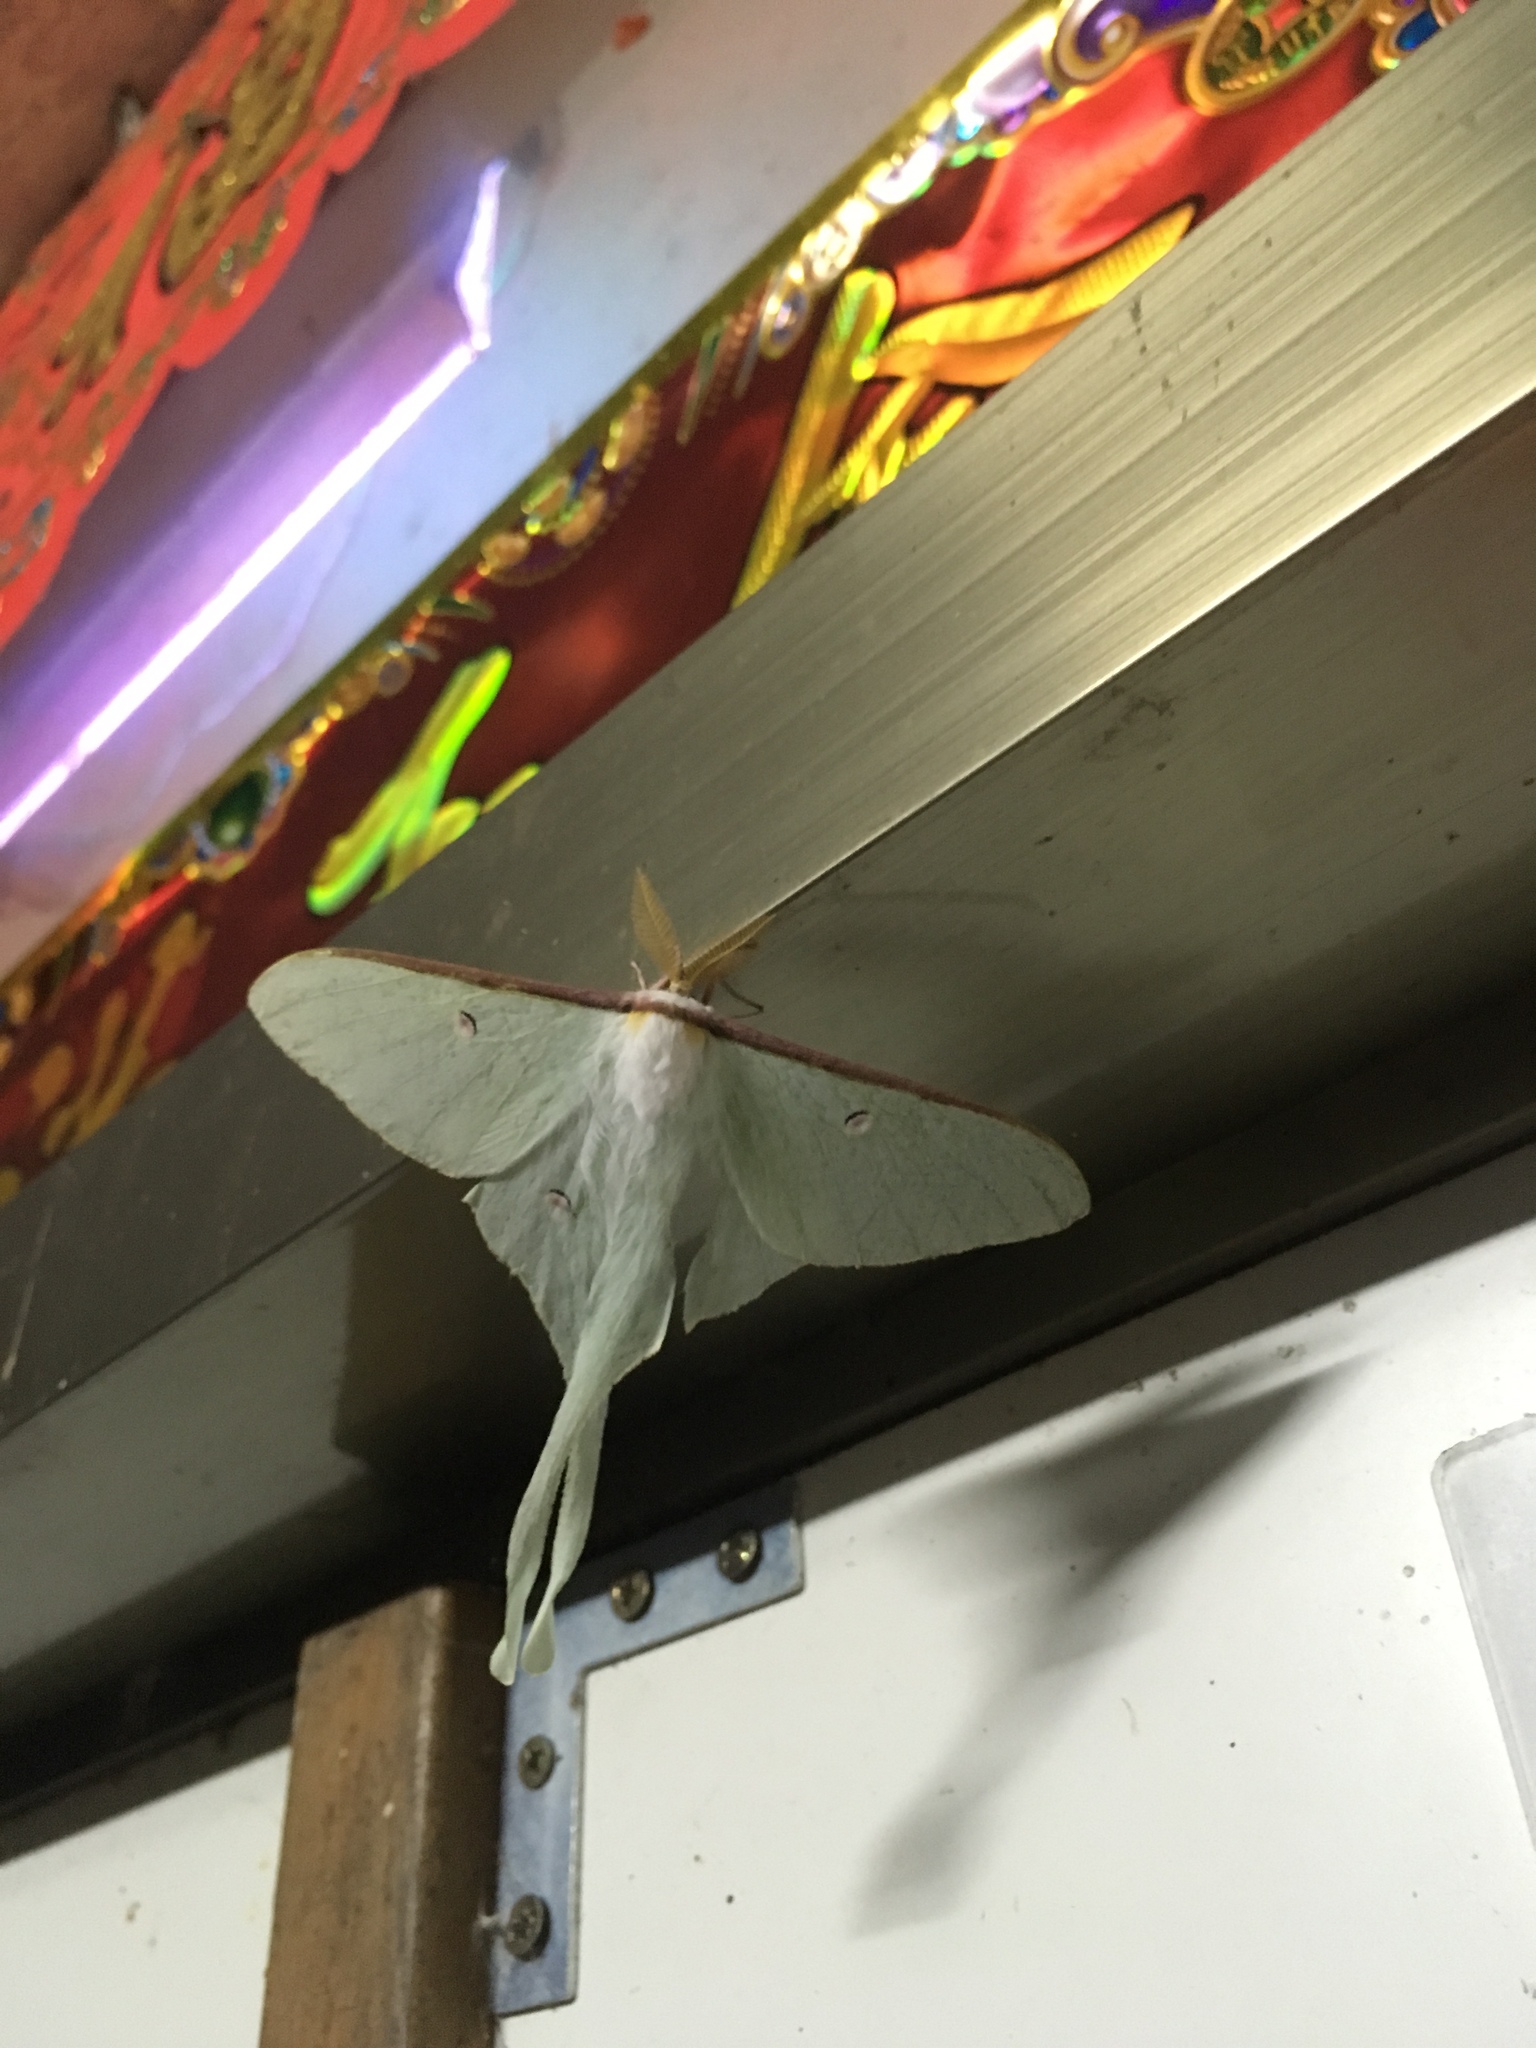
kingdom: Animalia
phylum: Arthropoda
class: Insecta
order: Lepidoptera
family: Saturniidae
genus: Actias
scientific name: Actias neidhoeferi
